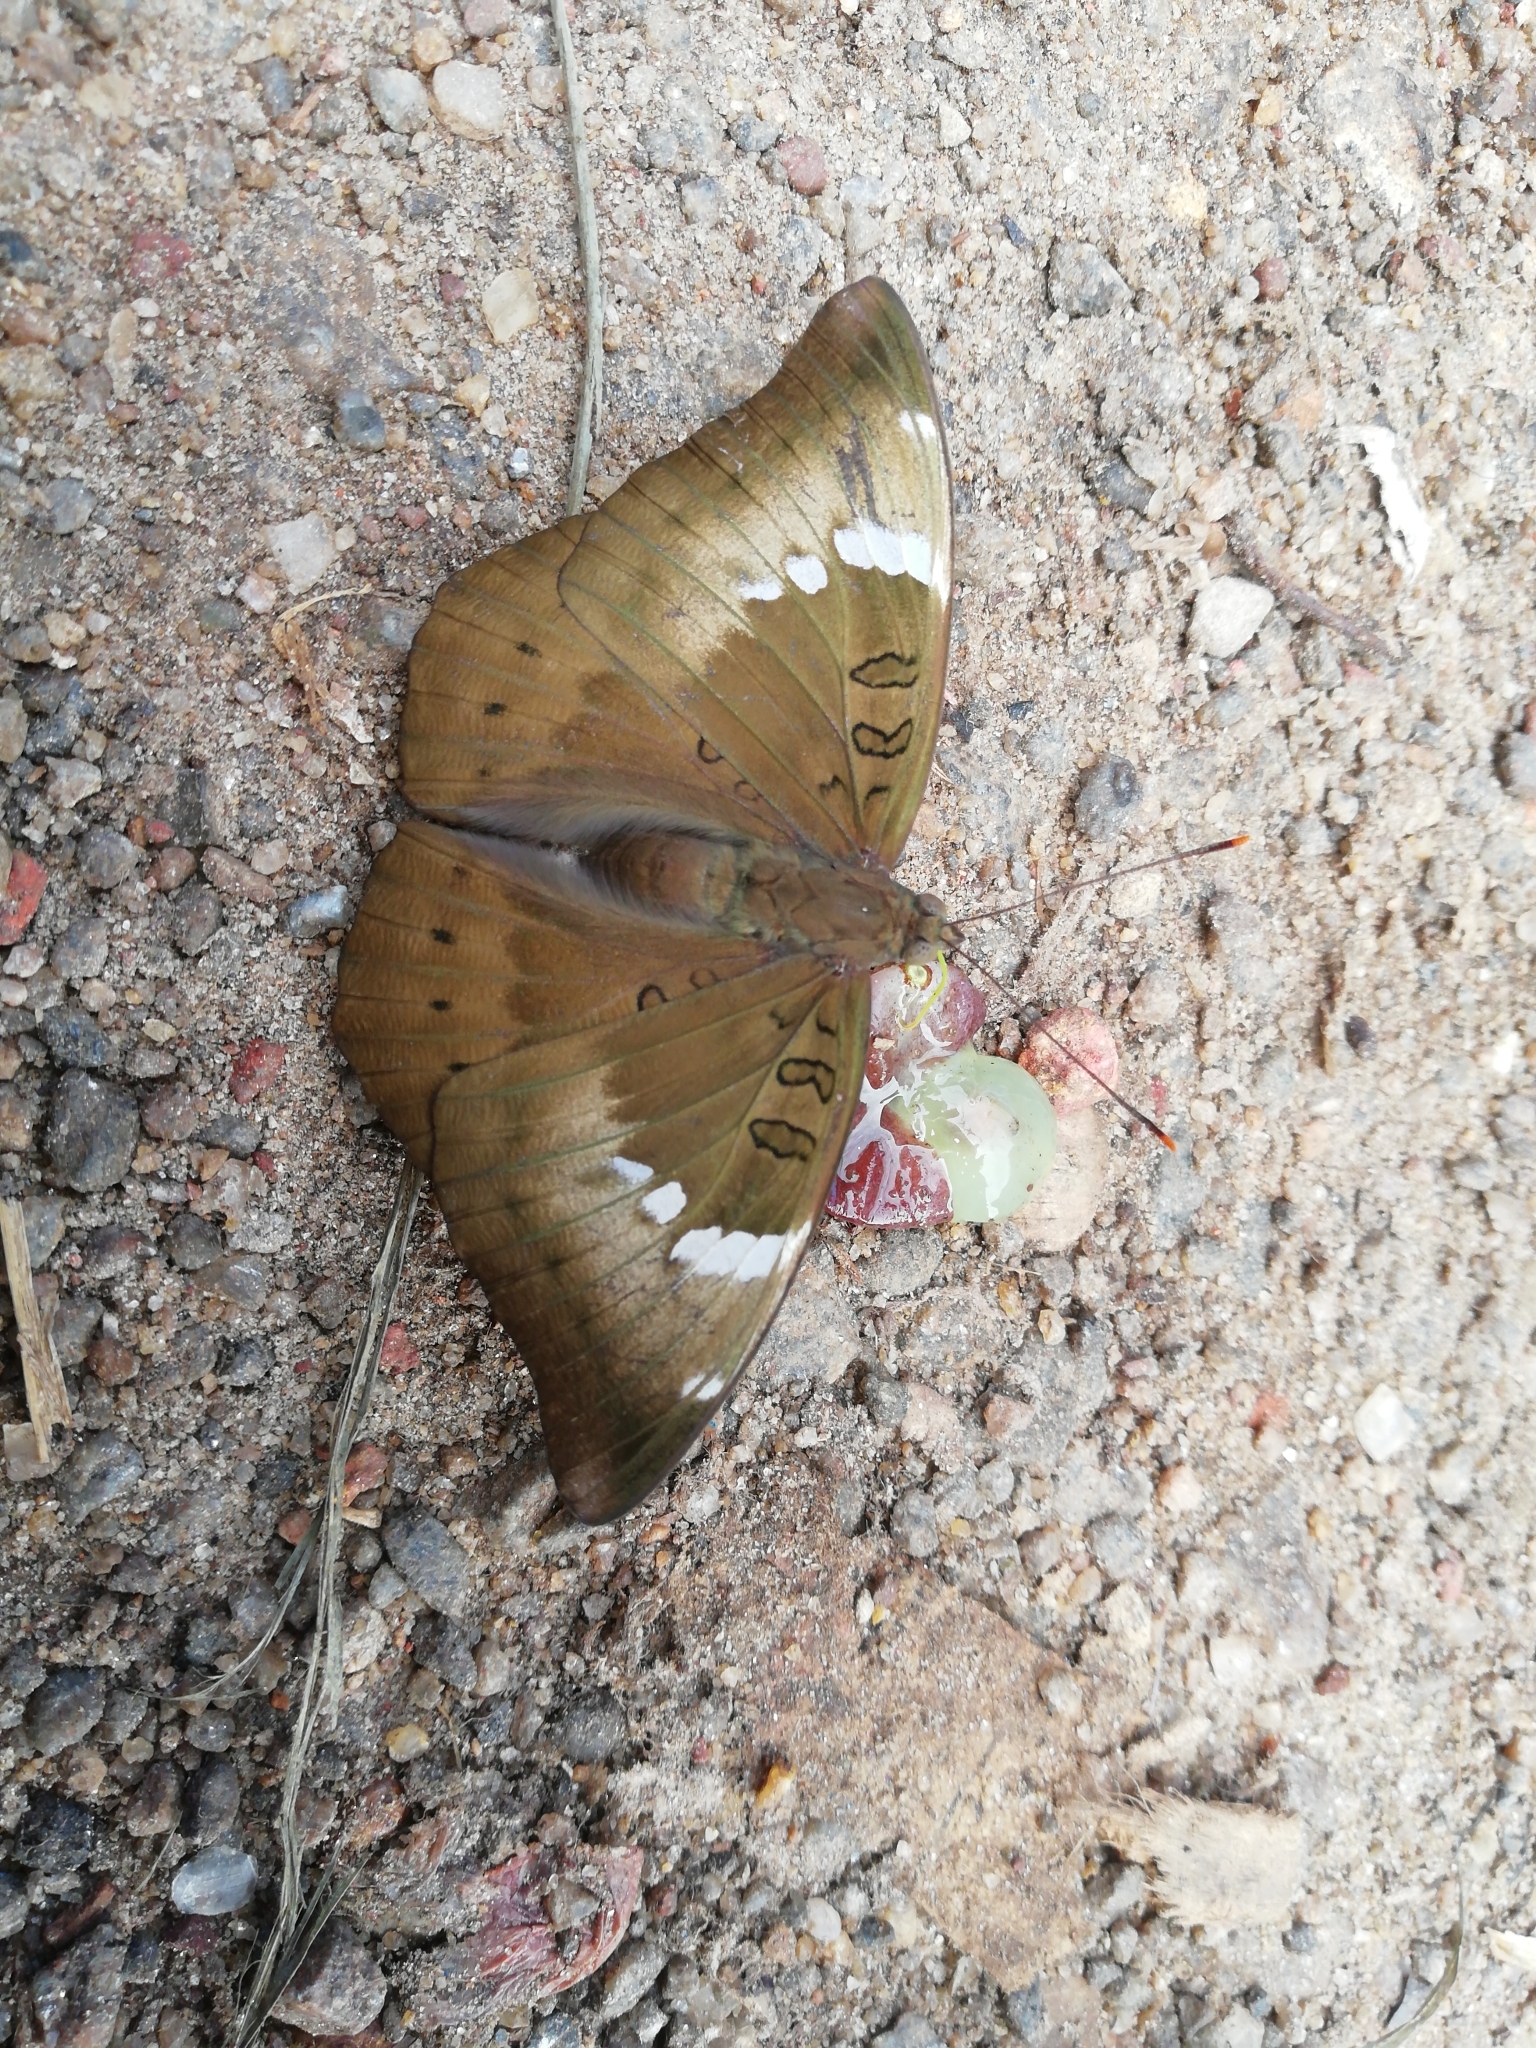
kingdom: Animalia
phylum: Arthropoda
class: Insecta
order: Lepidoptera
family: Nymphalidae
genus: Euthalia
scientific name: Euthalia aconthea
